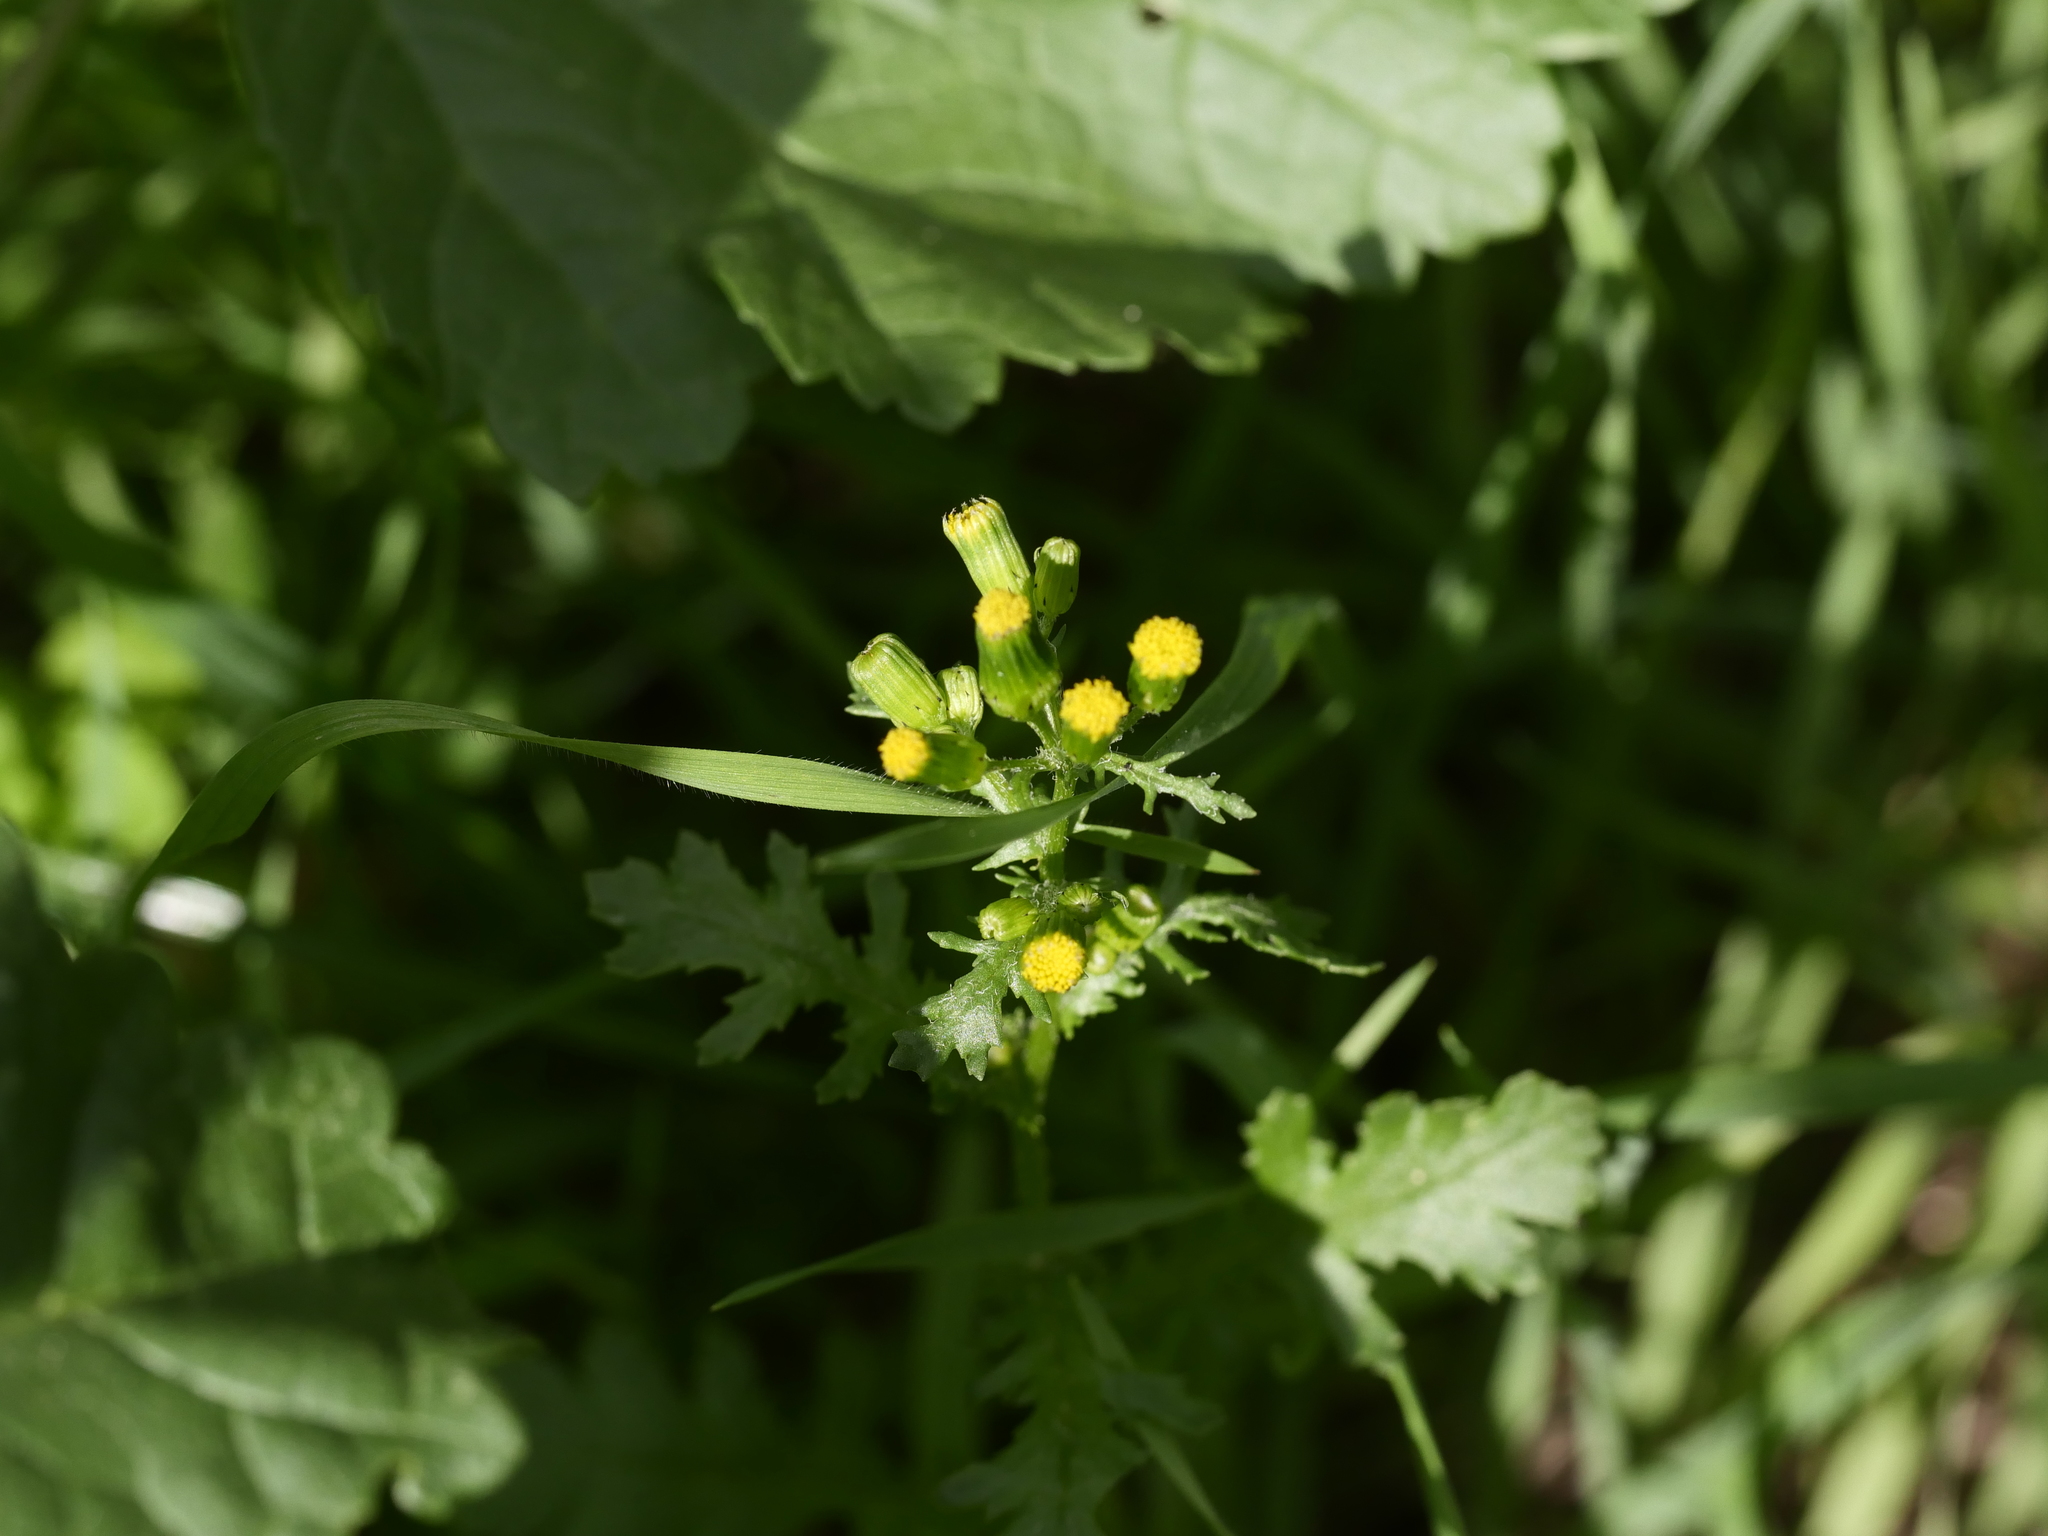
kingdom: Plantae
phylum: Tracheophyta
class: Magnoliopsida
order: Asterales
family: Asteraceae
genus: Senecio
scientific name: Senecio vulgaris
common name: Old-man-in-the-spring
